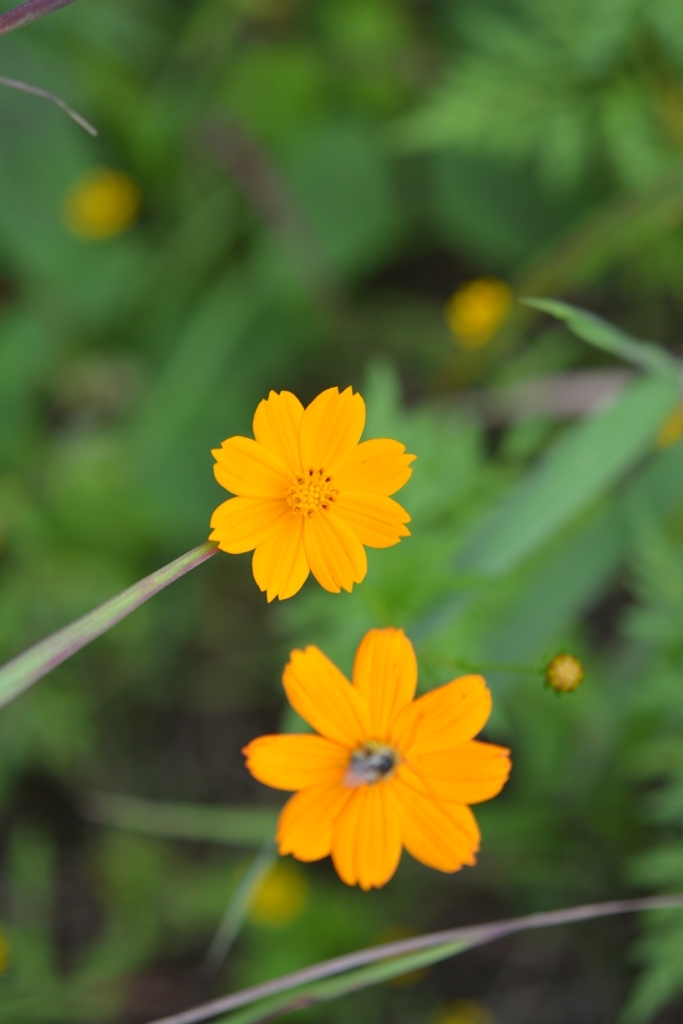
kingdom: Plantae
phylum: Tracheophyta
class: Magnoliopsida
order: Asterales
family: Asteraceae
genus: Cosmos
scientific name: Cosmos sulphureus
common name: Sulphur cosmos
